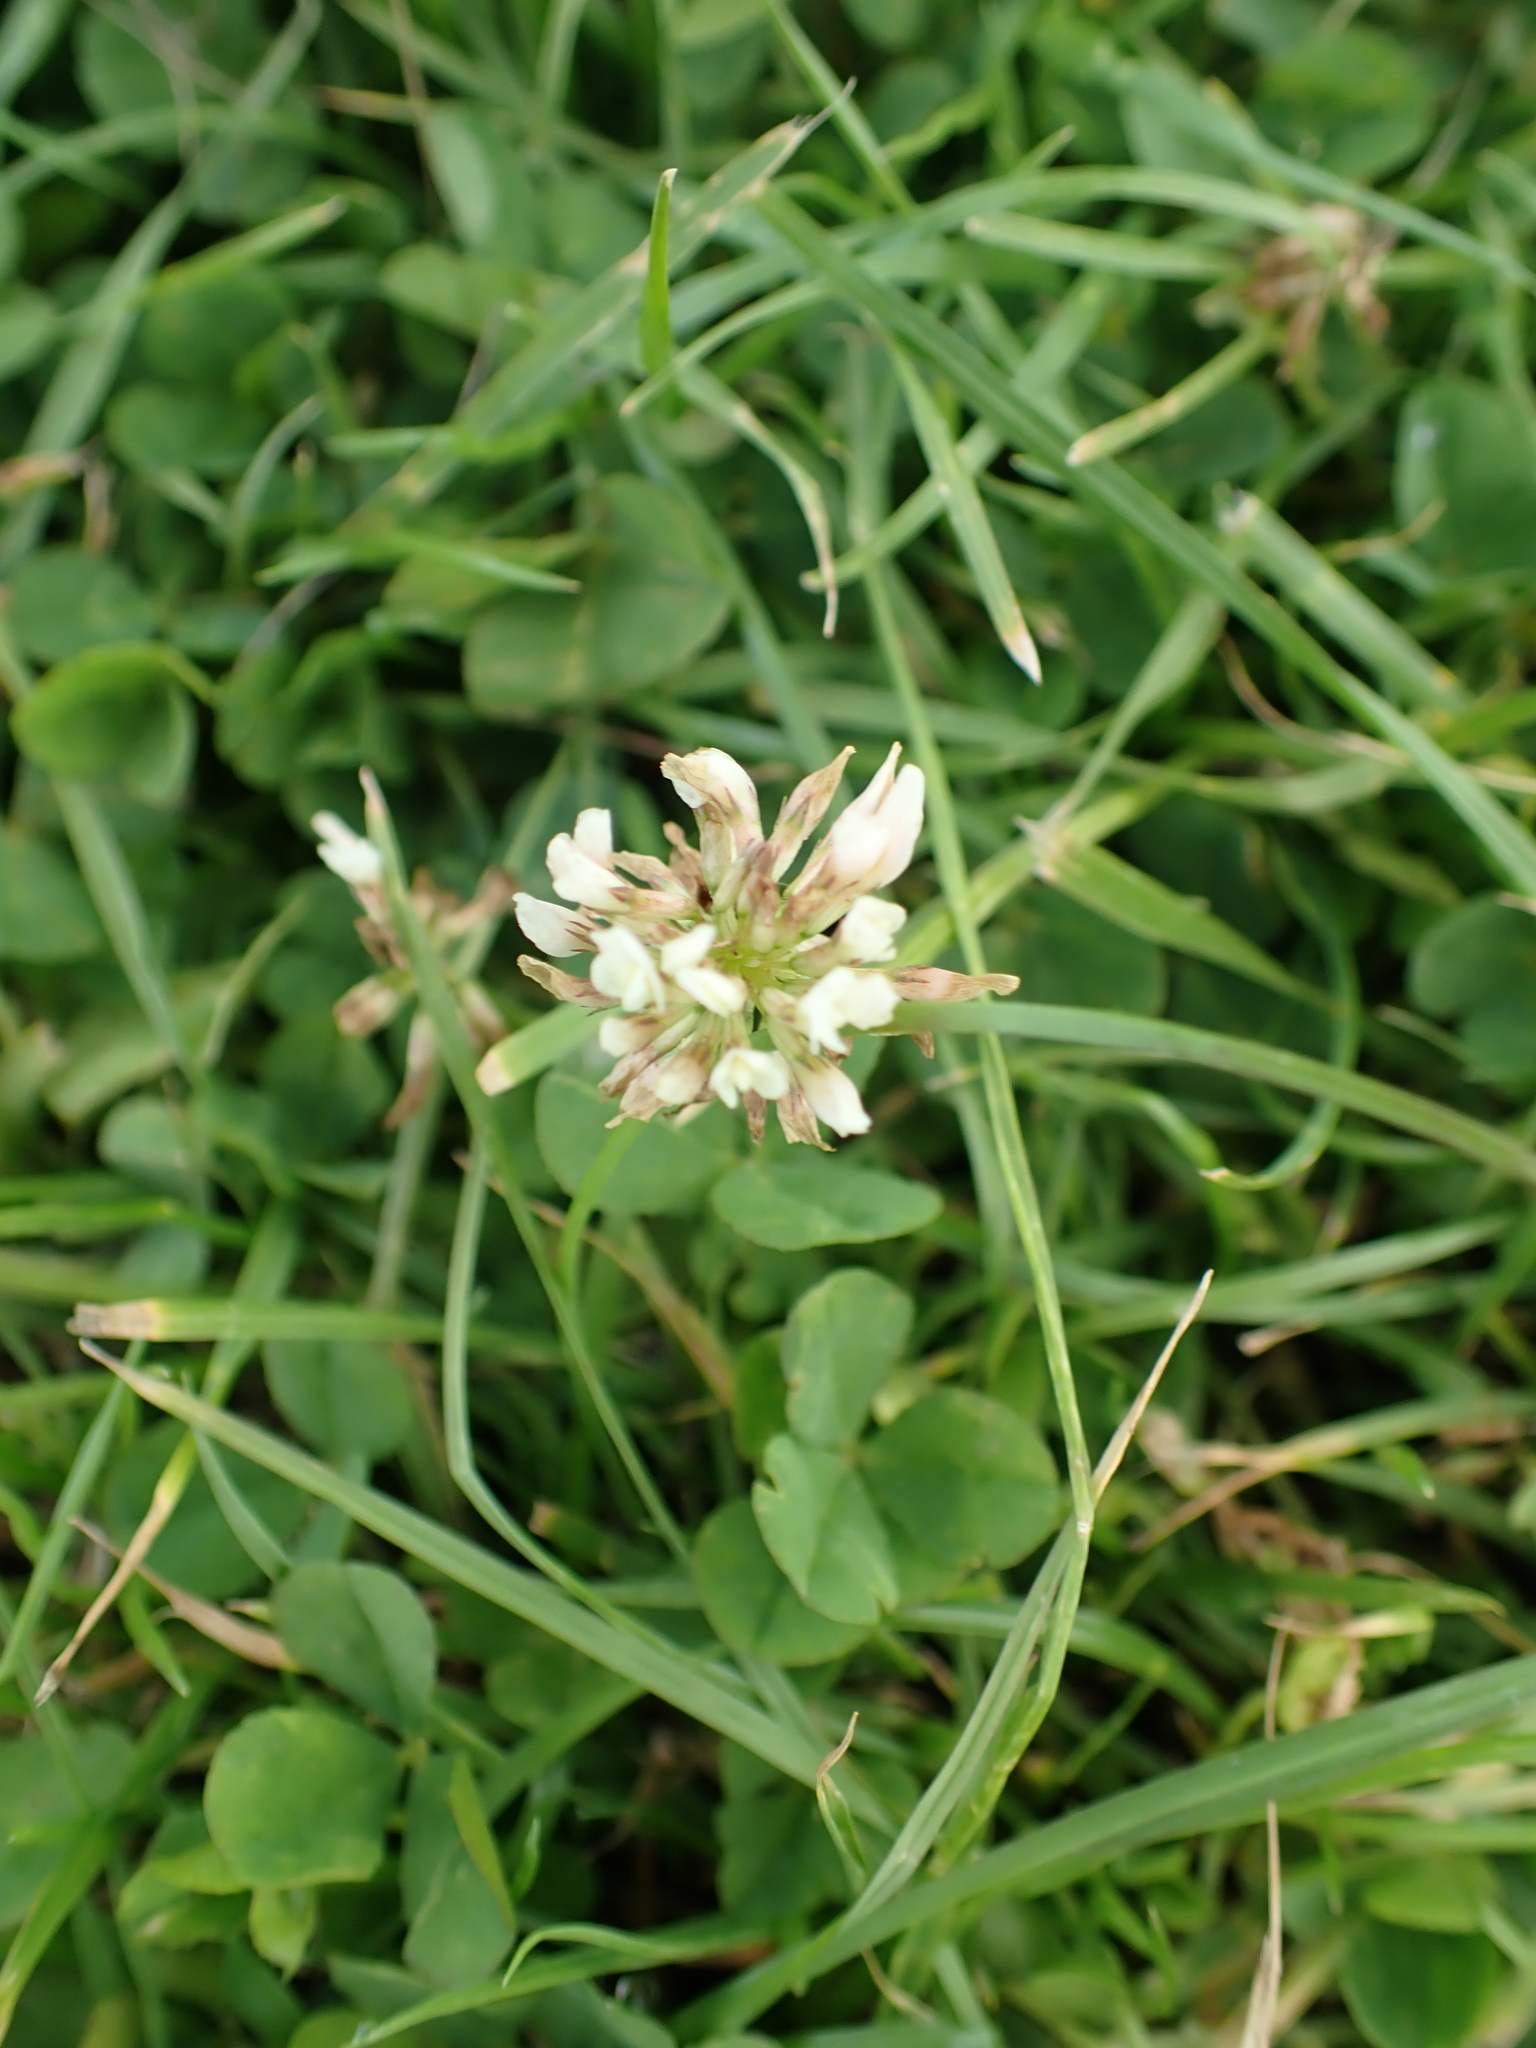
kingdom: Plantae
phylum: Tracheophyta
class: Magnoliopsida
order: Fabales
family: Fabaceae
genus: Trifolium
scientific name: Trifolium repens
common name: White clover
